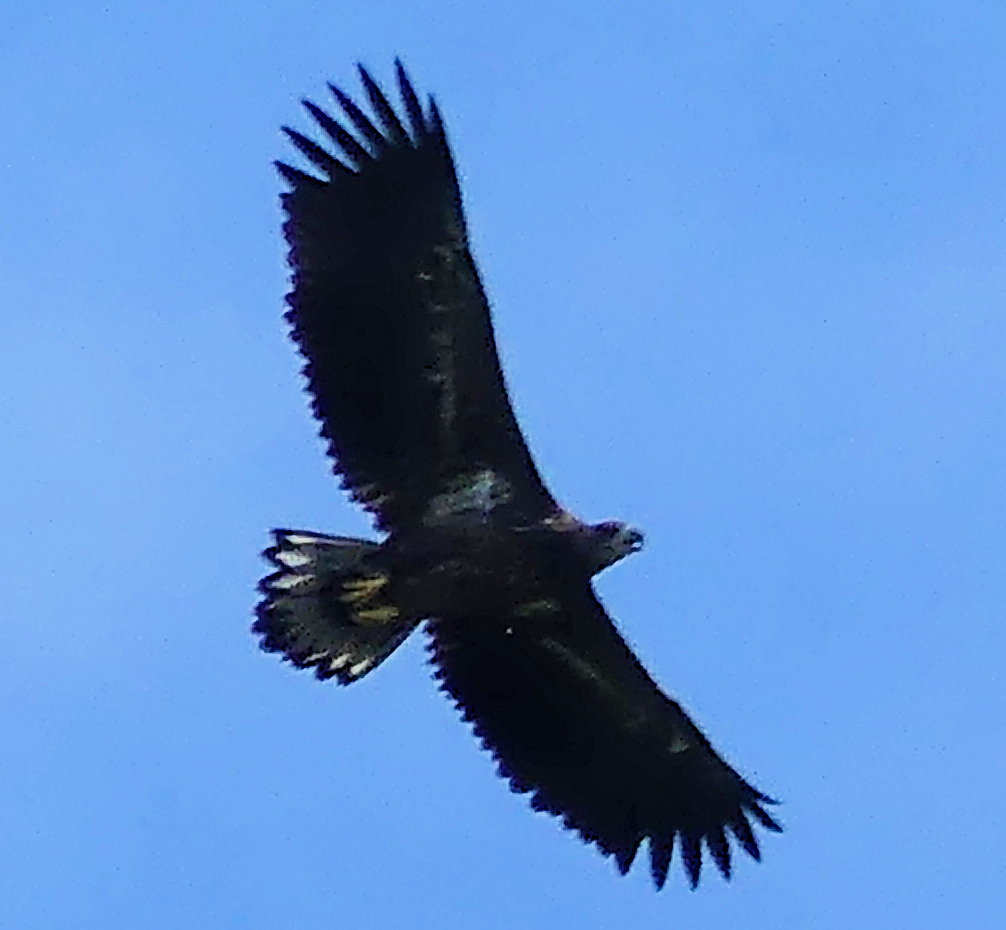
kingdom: Animalia
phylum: Chordata
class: Aves
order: Accipitriformes
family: Accipitridae
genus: Haliaeetus
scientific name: Haliaeetus albicilla
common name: White-tailed eagle
